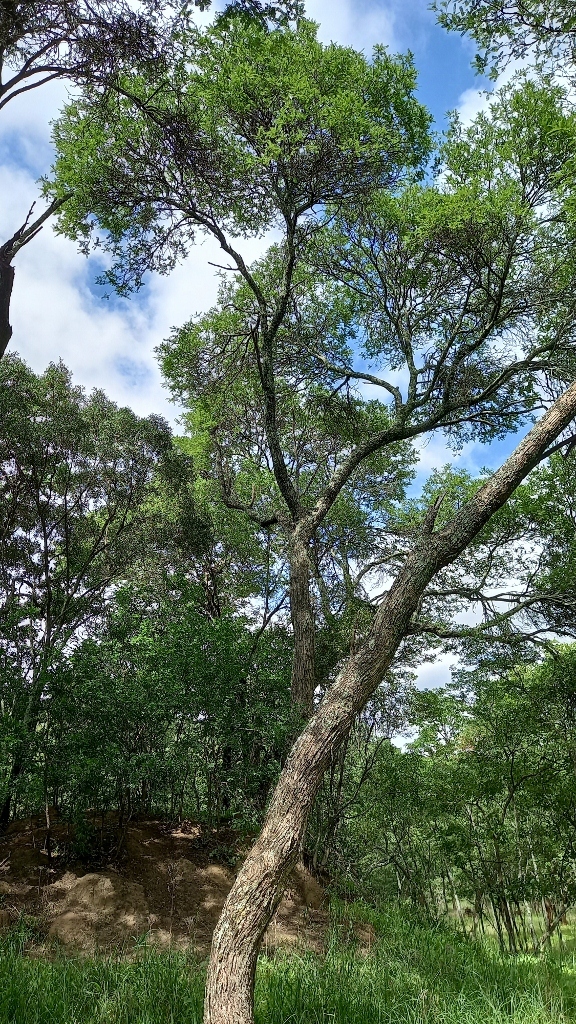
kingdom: Plantae
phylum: Tracheophyta
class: Magnoliopsida
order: Fabales
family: Fabaceae
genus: Albizia
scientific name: Albizia amara
